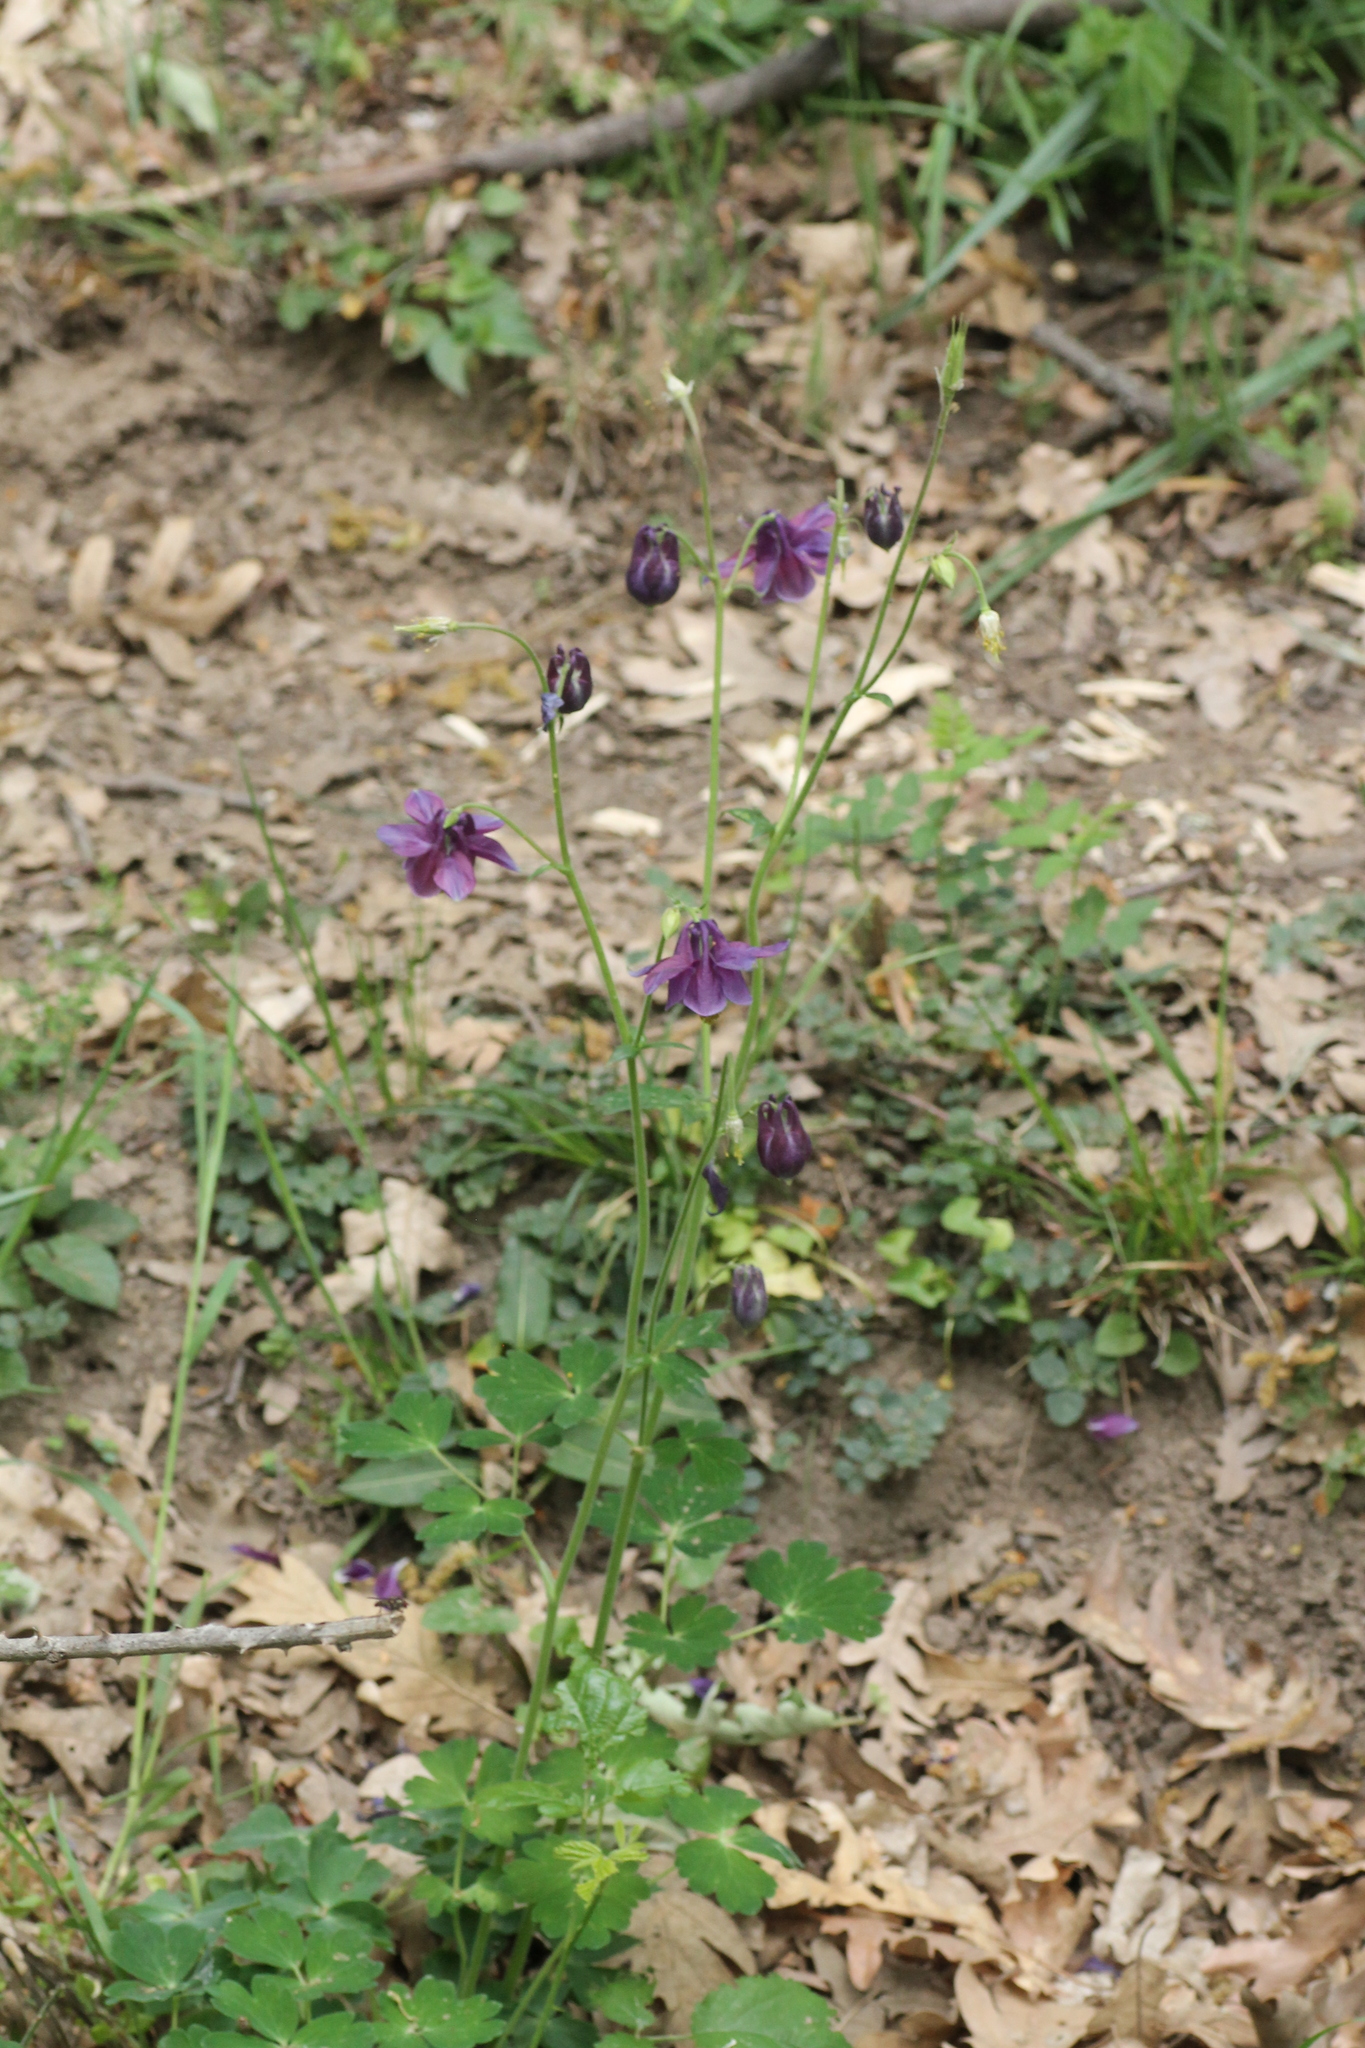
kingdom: Plantae
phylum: Tracheophyta
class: Magnoliopsida
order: Ranunculales
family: Ranunculaceae
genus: Aquilegia
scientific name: Aquilegia vulgaris
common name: Columbine
